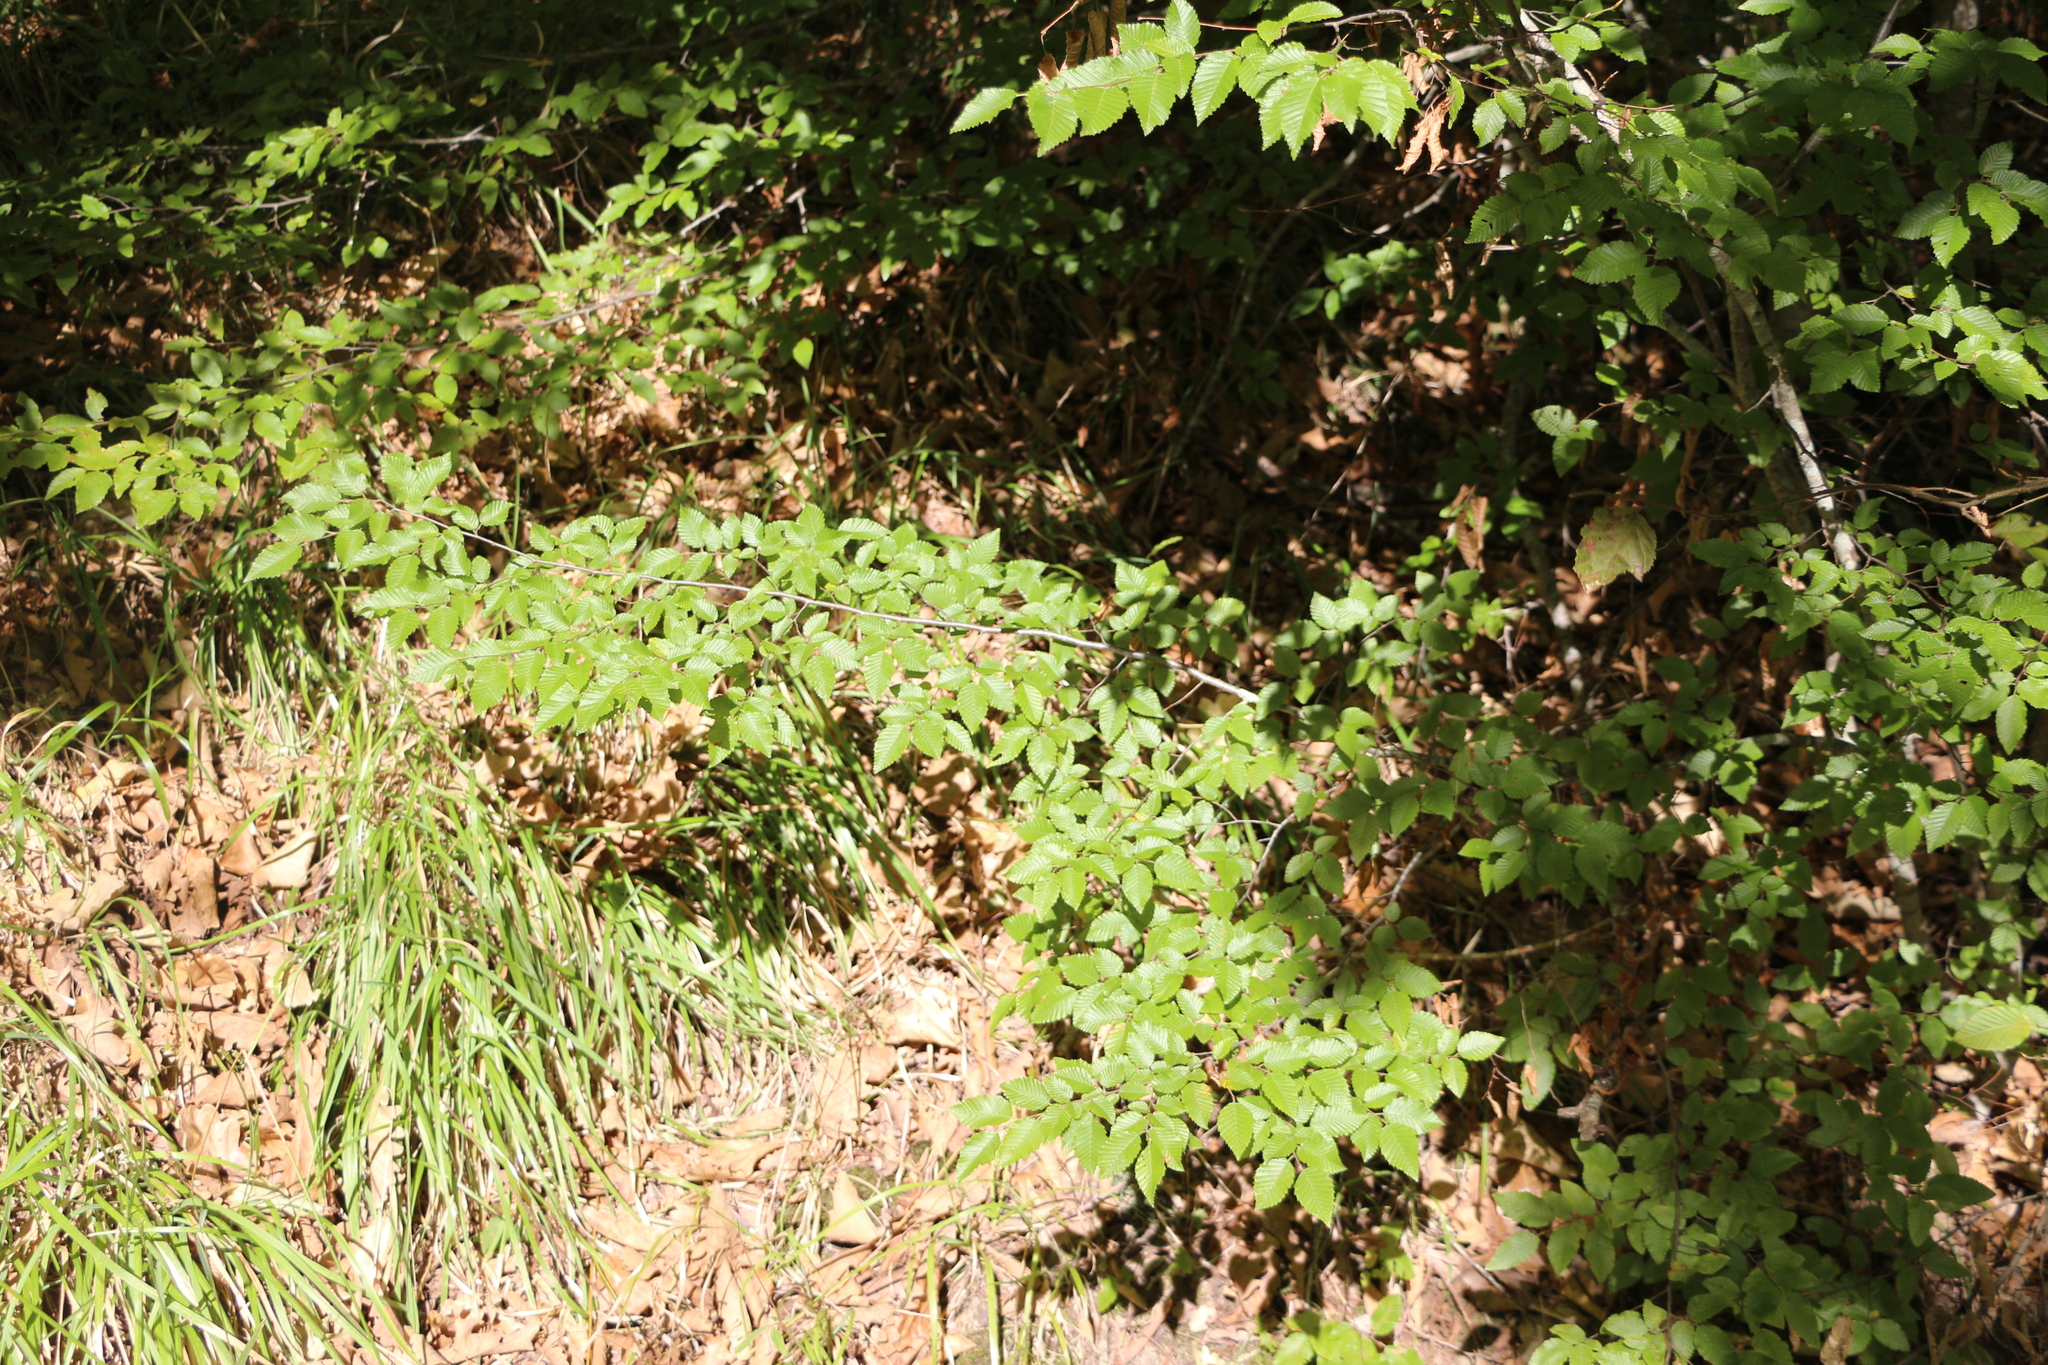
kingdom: Plantae
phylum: Tracheophyta
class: Magnoliopsida
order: Fagales
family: Betulaceae
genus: Carpinus
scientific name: Carpinus orientalis
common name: Eastern hornbeam
